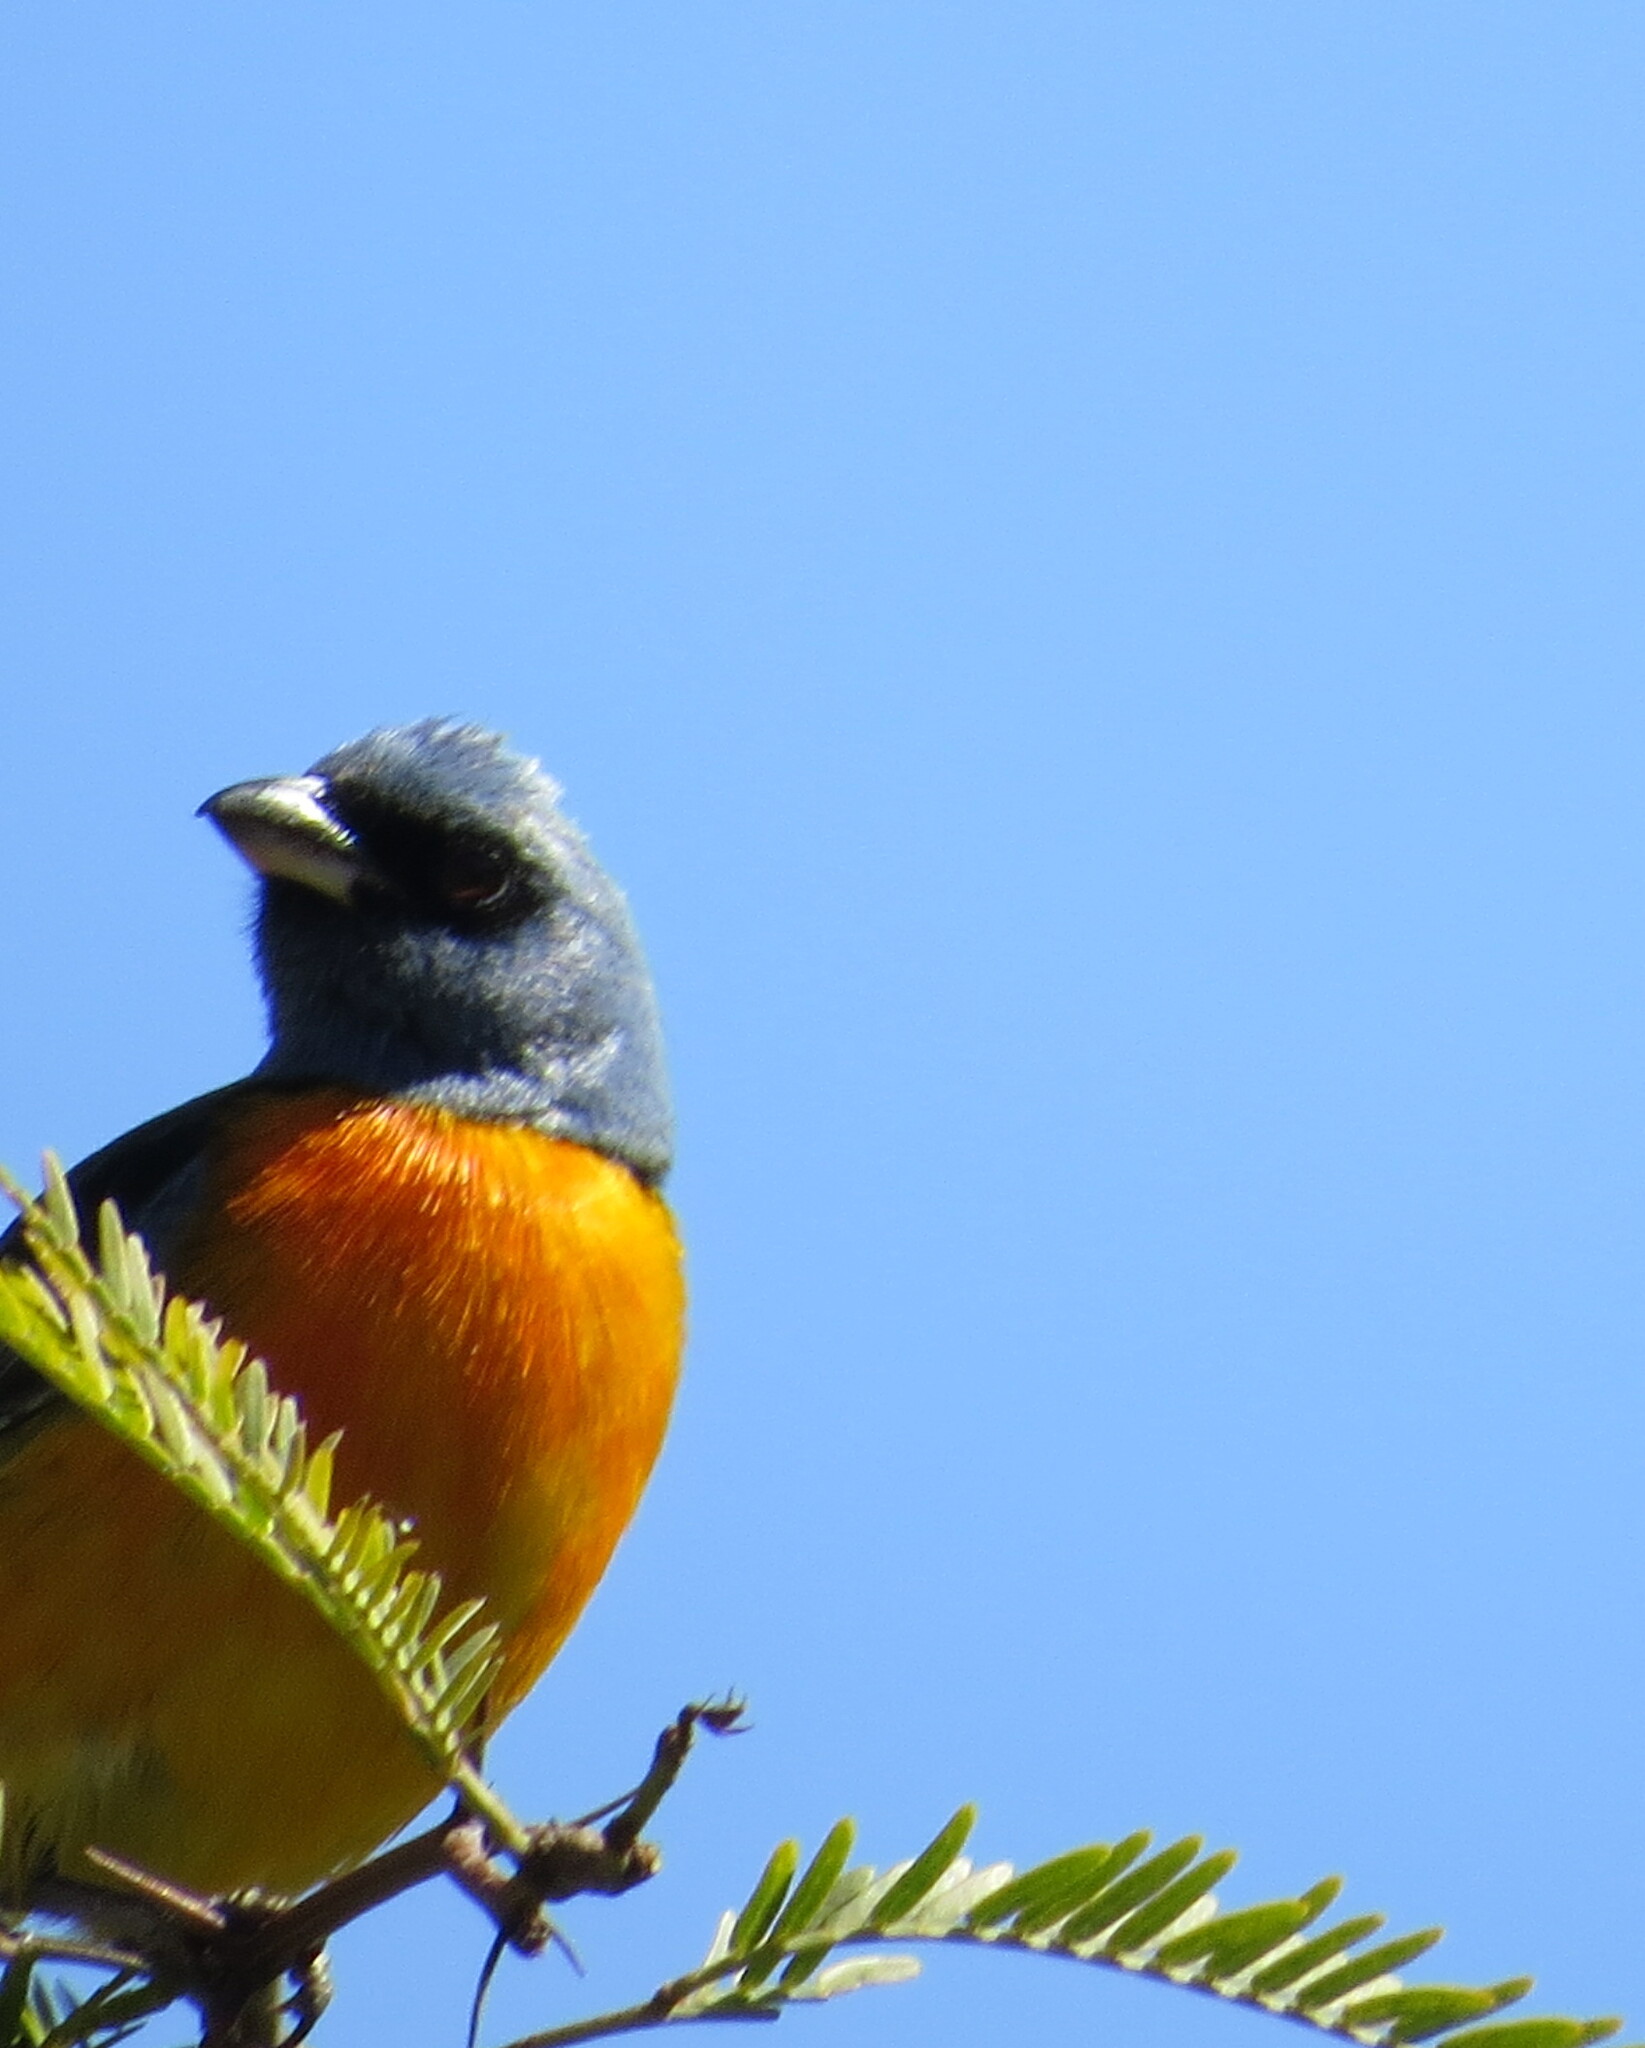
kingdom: Animalia
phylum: Chordata
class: Aves
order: Passeriformes
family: Thraupidae
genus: Rauenia
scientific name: Rauenia bonariensis
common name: Blue-and-yellow tanager
